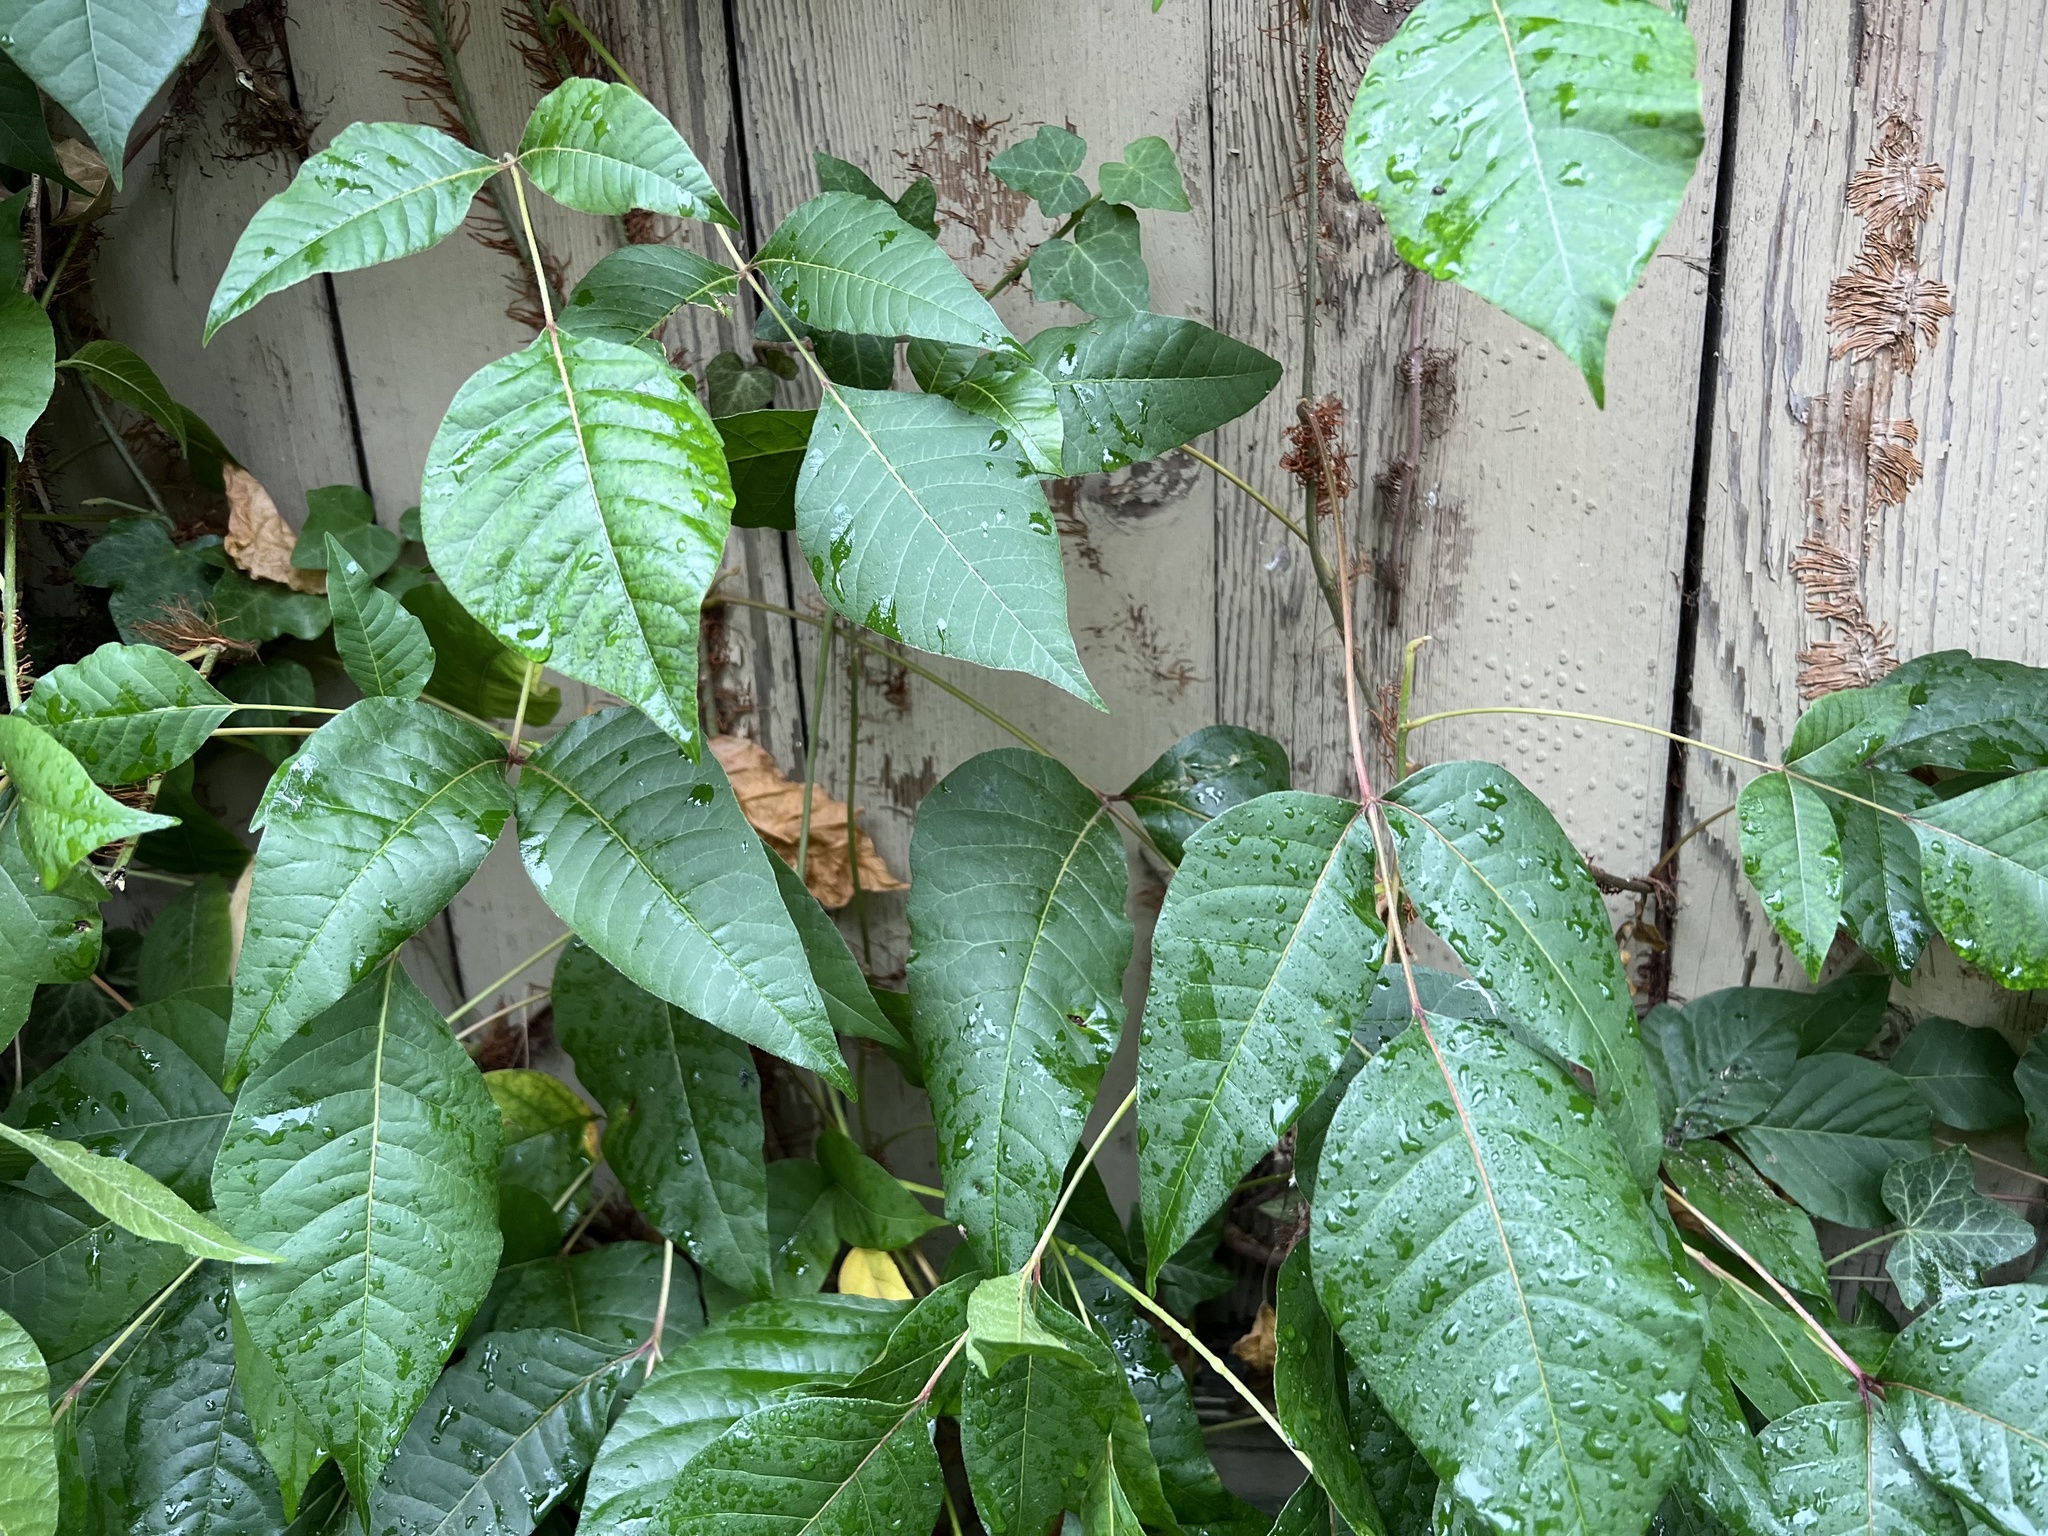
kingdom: Plantae
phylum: Tracheophyta
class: Magnoliopsida
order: Sapindales
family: Anacardiaceae
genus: Toxicodendron
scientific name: Toxicodendron radicans
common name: Poison ivy
